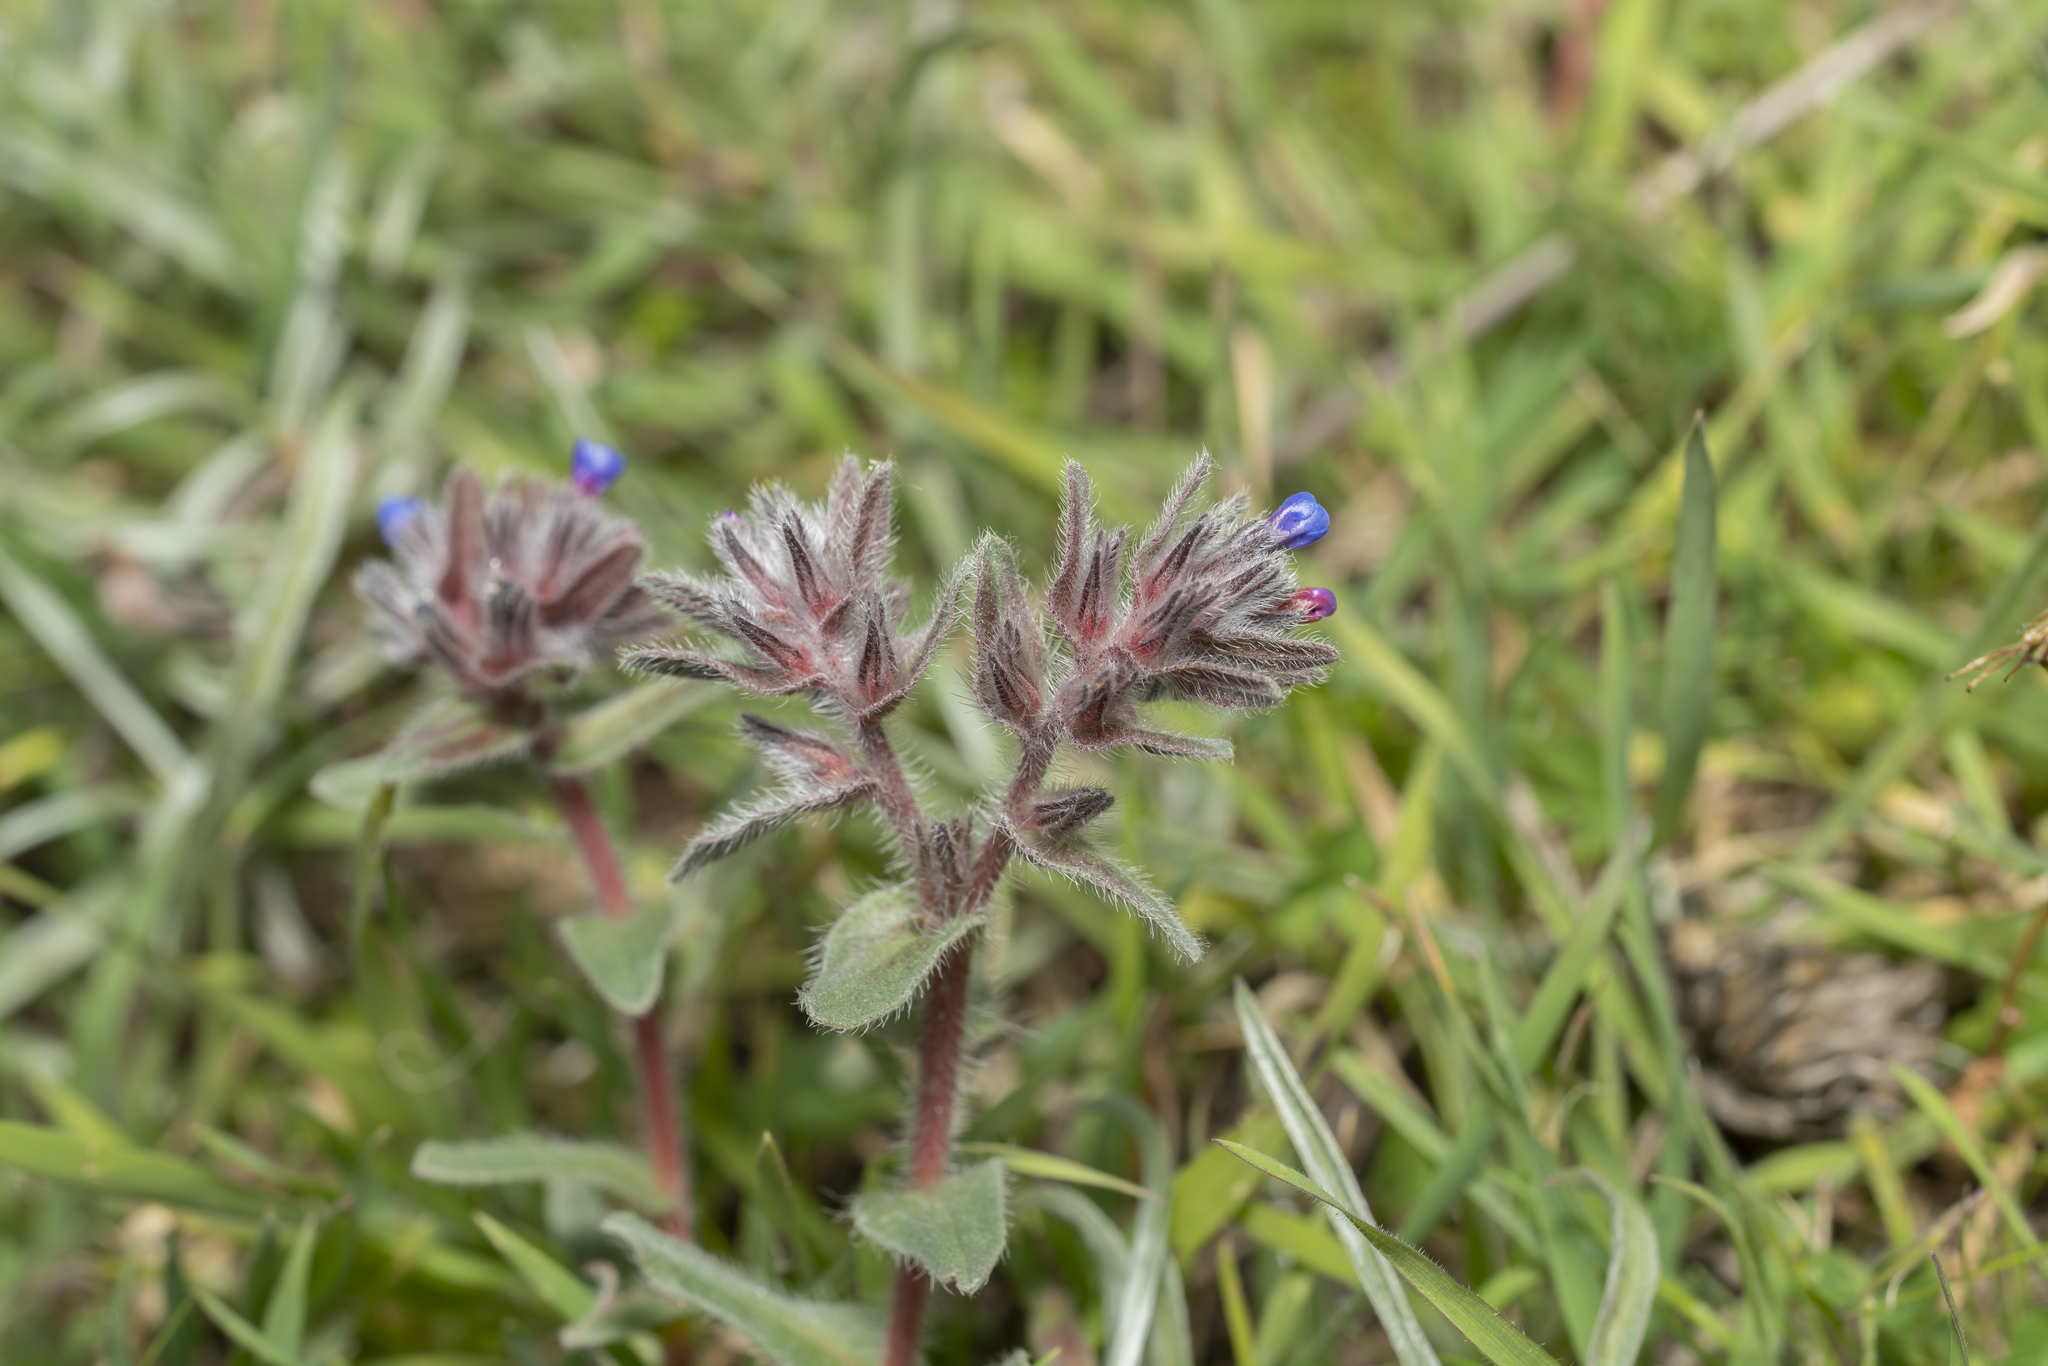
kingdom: Plantae
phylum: Tracheophyta
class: Magnoliopsida
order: Boraginales
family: Boraginaceae
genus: Alkanna
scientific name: Alkanna tinctoria
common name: Dyer's-alkanet
